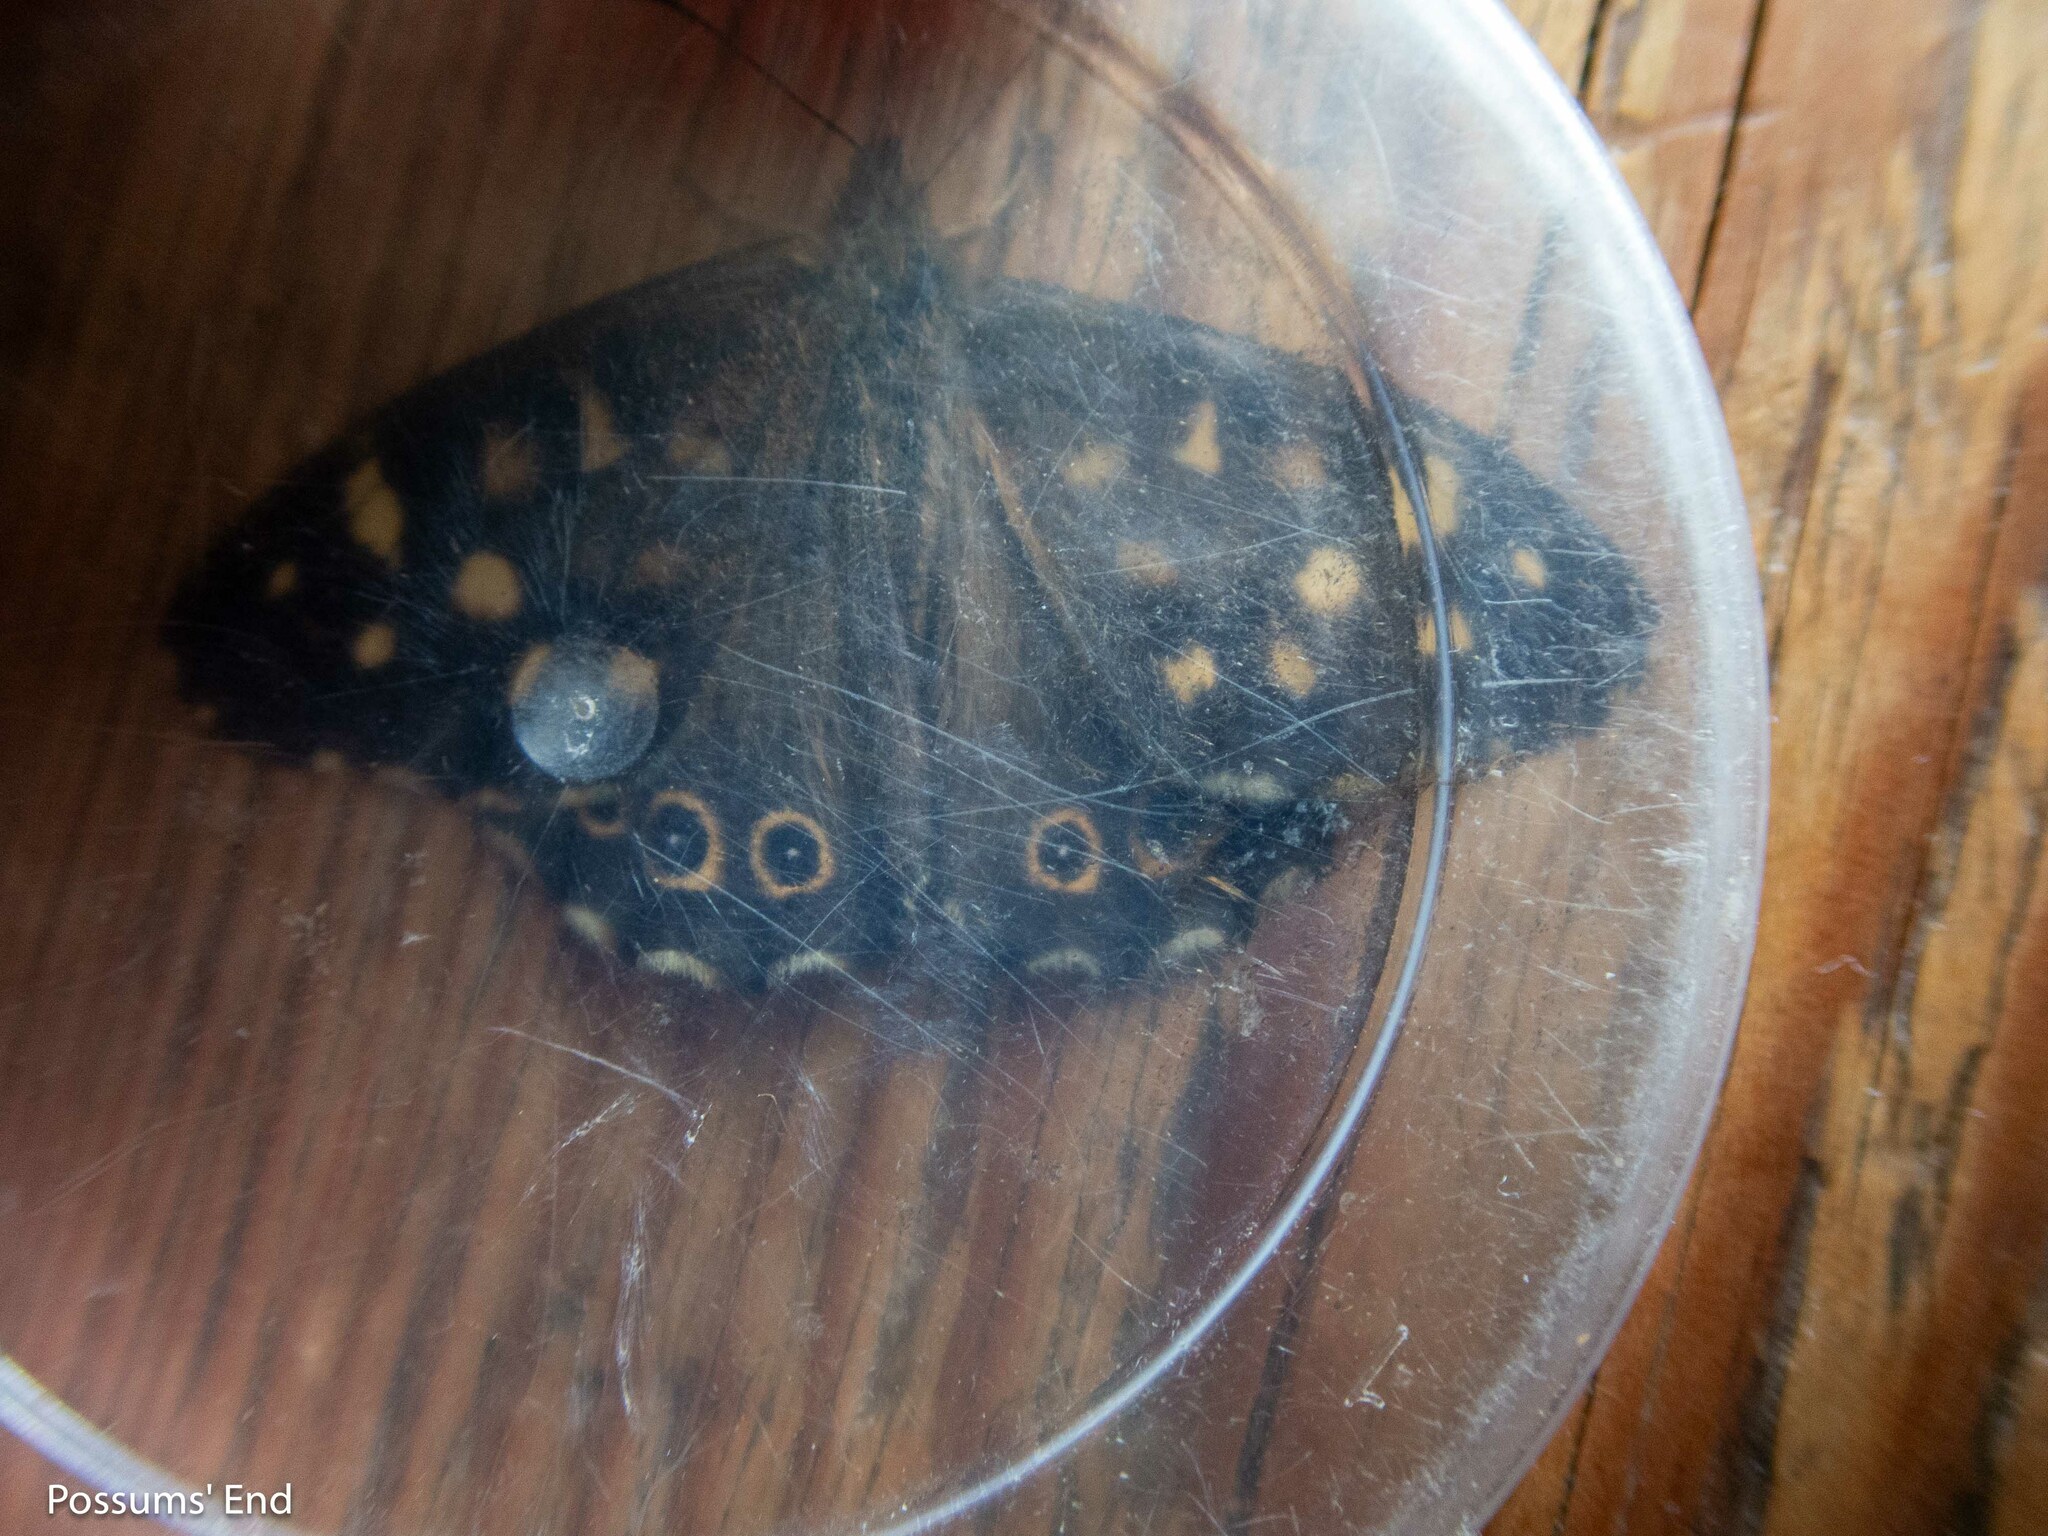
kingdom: Animalia
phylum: Arthropoda
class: Insecta
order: Lepidoptera
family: Nymphalidae
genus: Pararge
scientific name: Pararge aegeria
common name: Speckled wood
